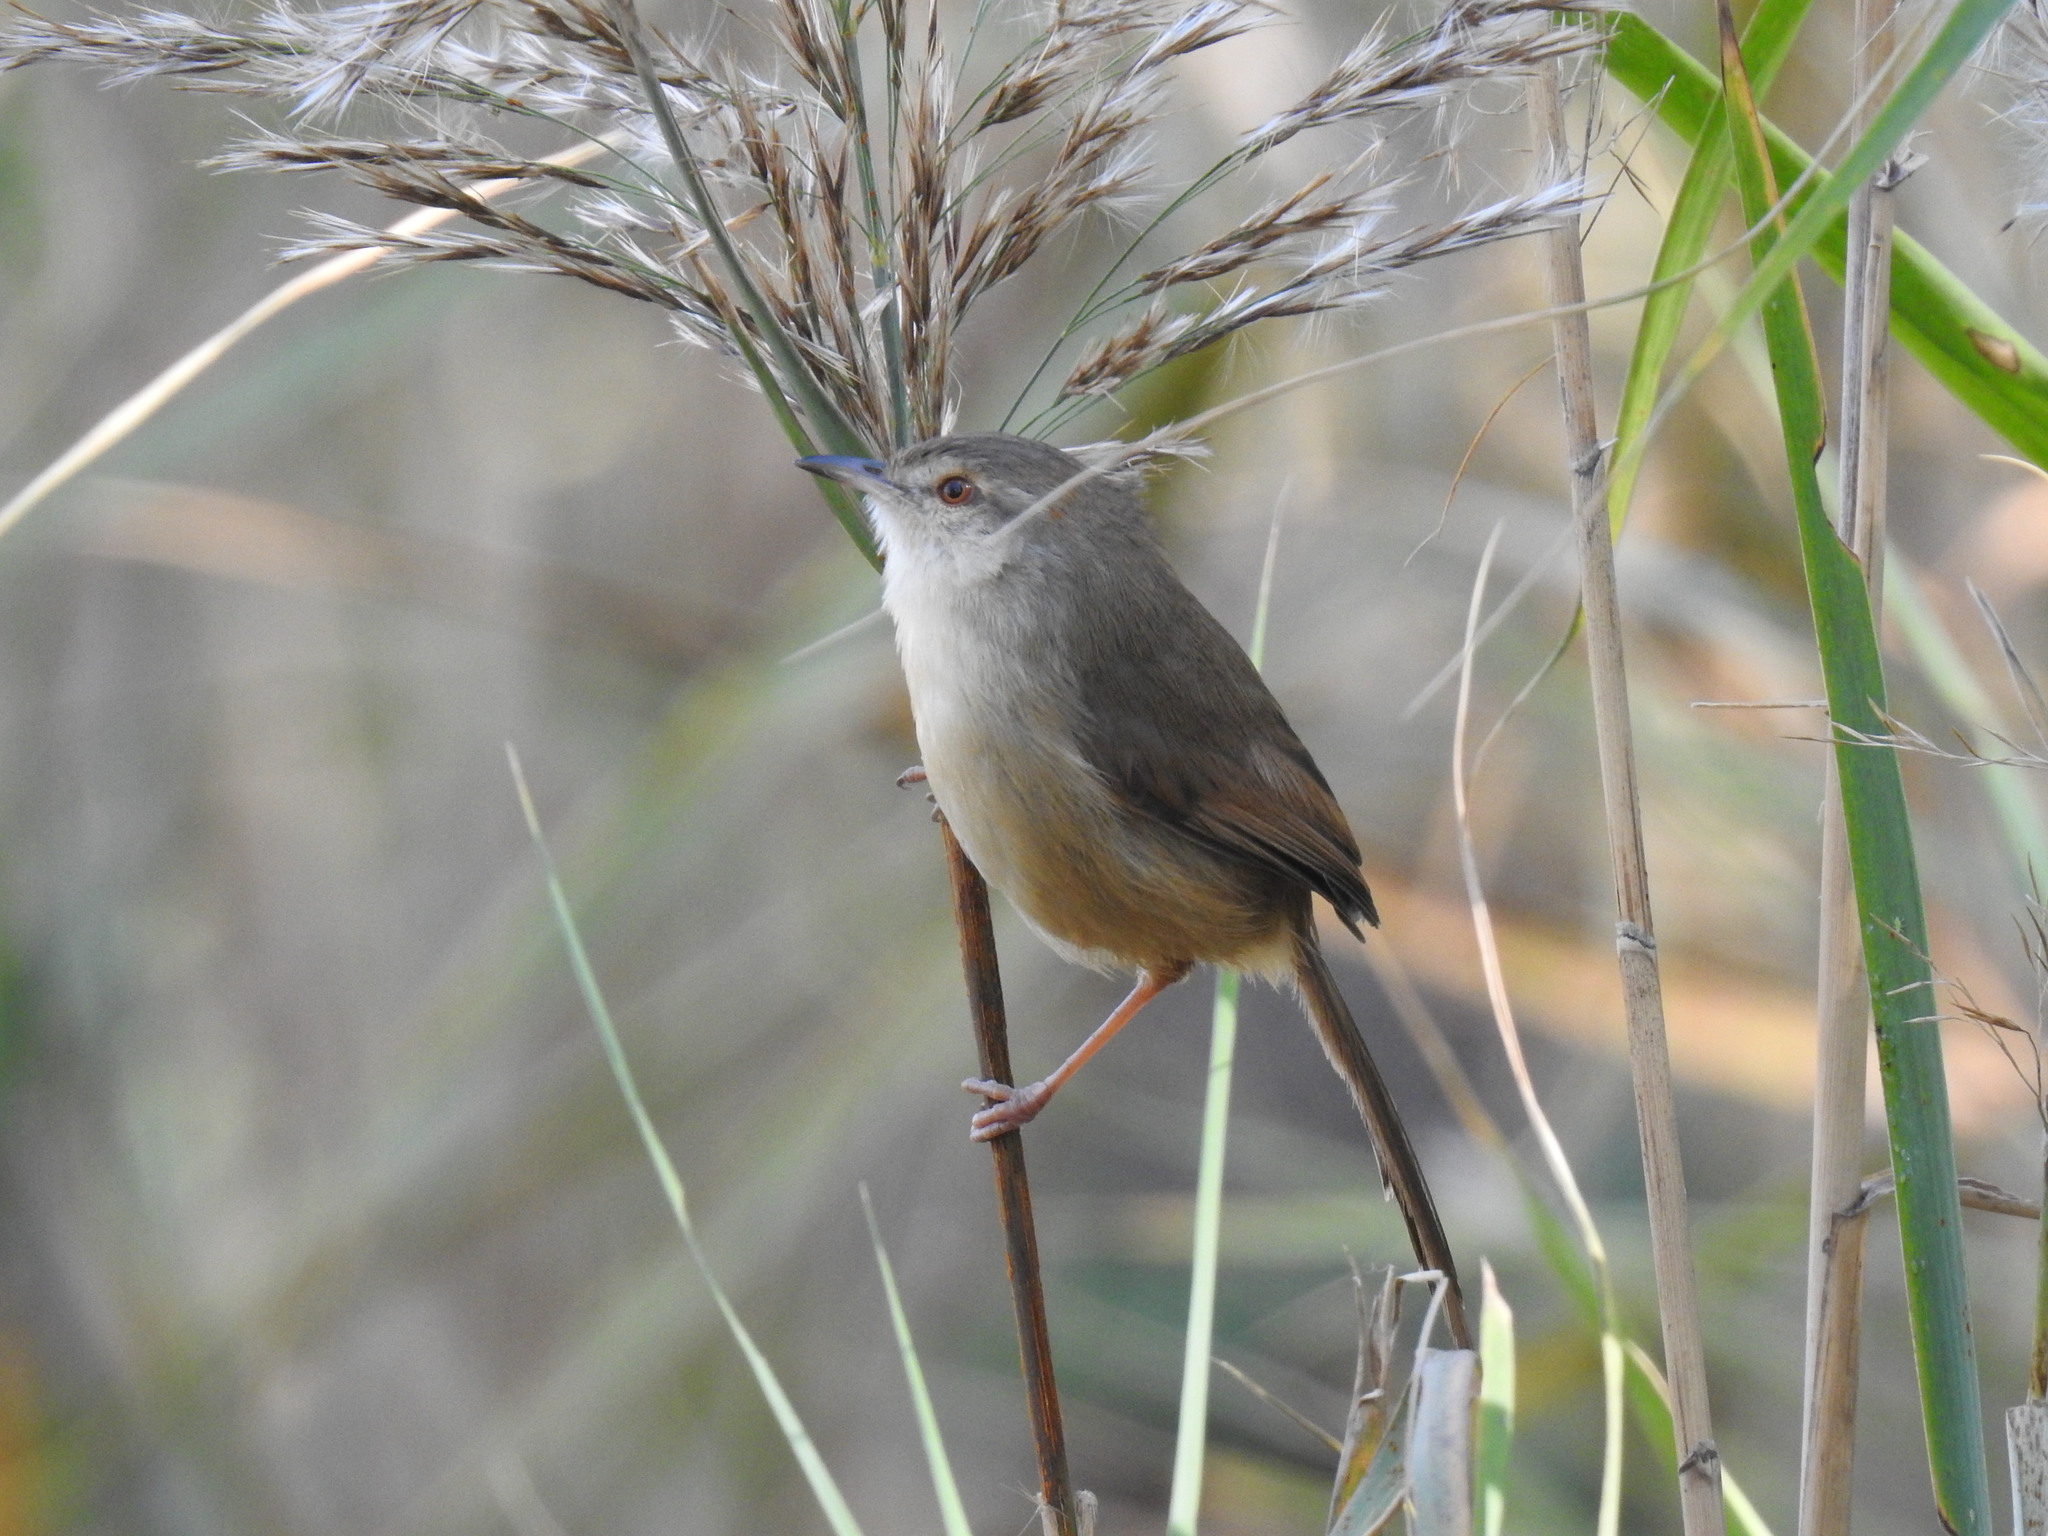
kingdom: Animalia
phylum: Chordata
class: Aves
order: Passeriformes
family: Cisticolidae
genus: Prinia
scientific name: Prinia subflava
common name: Tawny-flanked prinia
